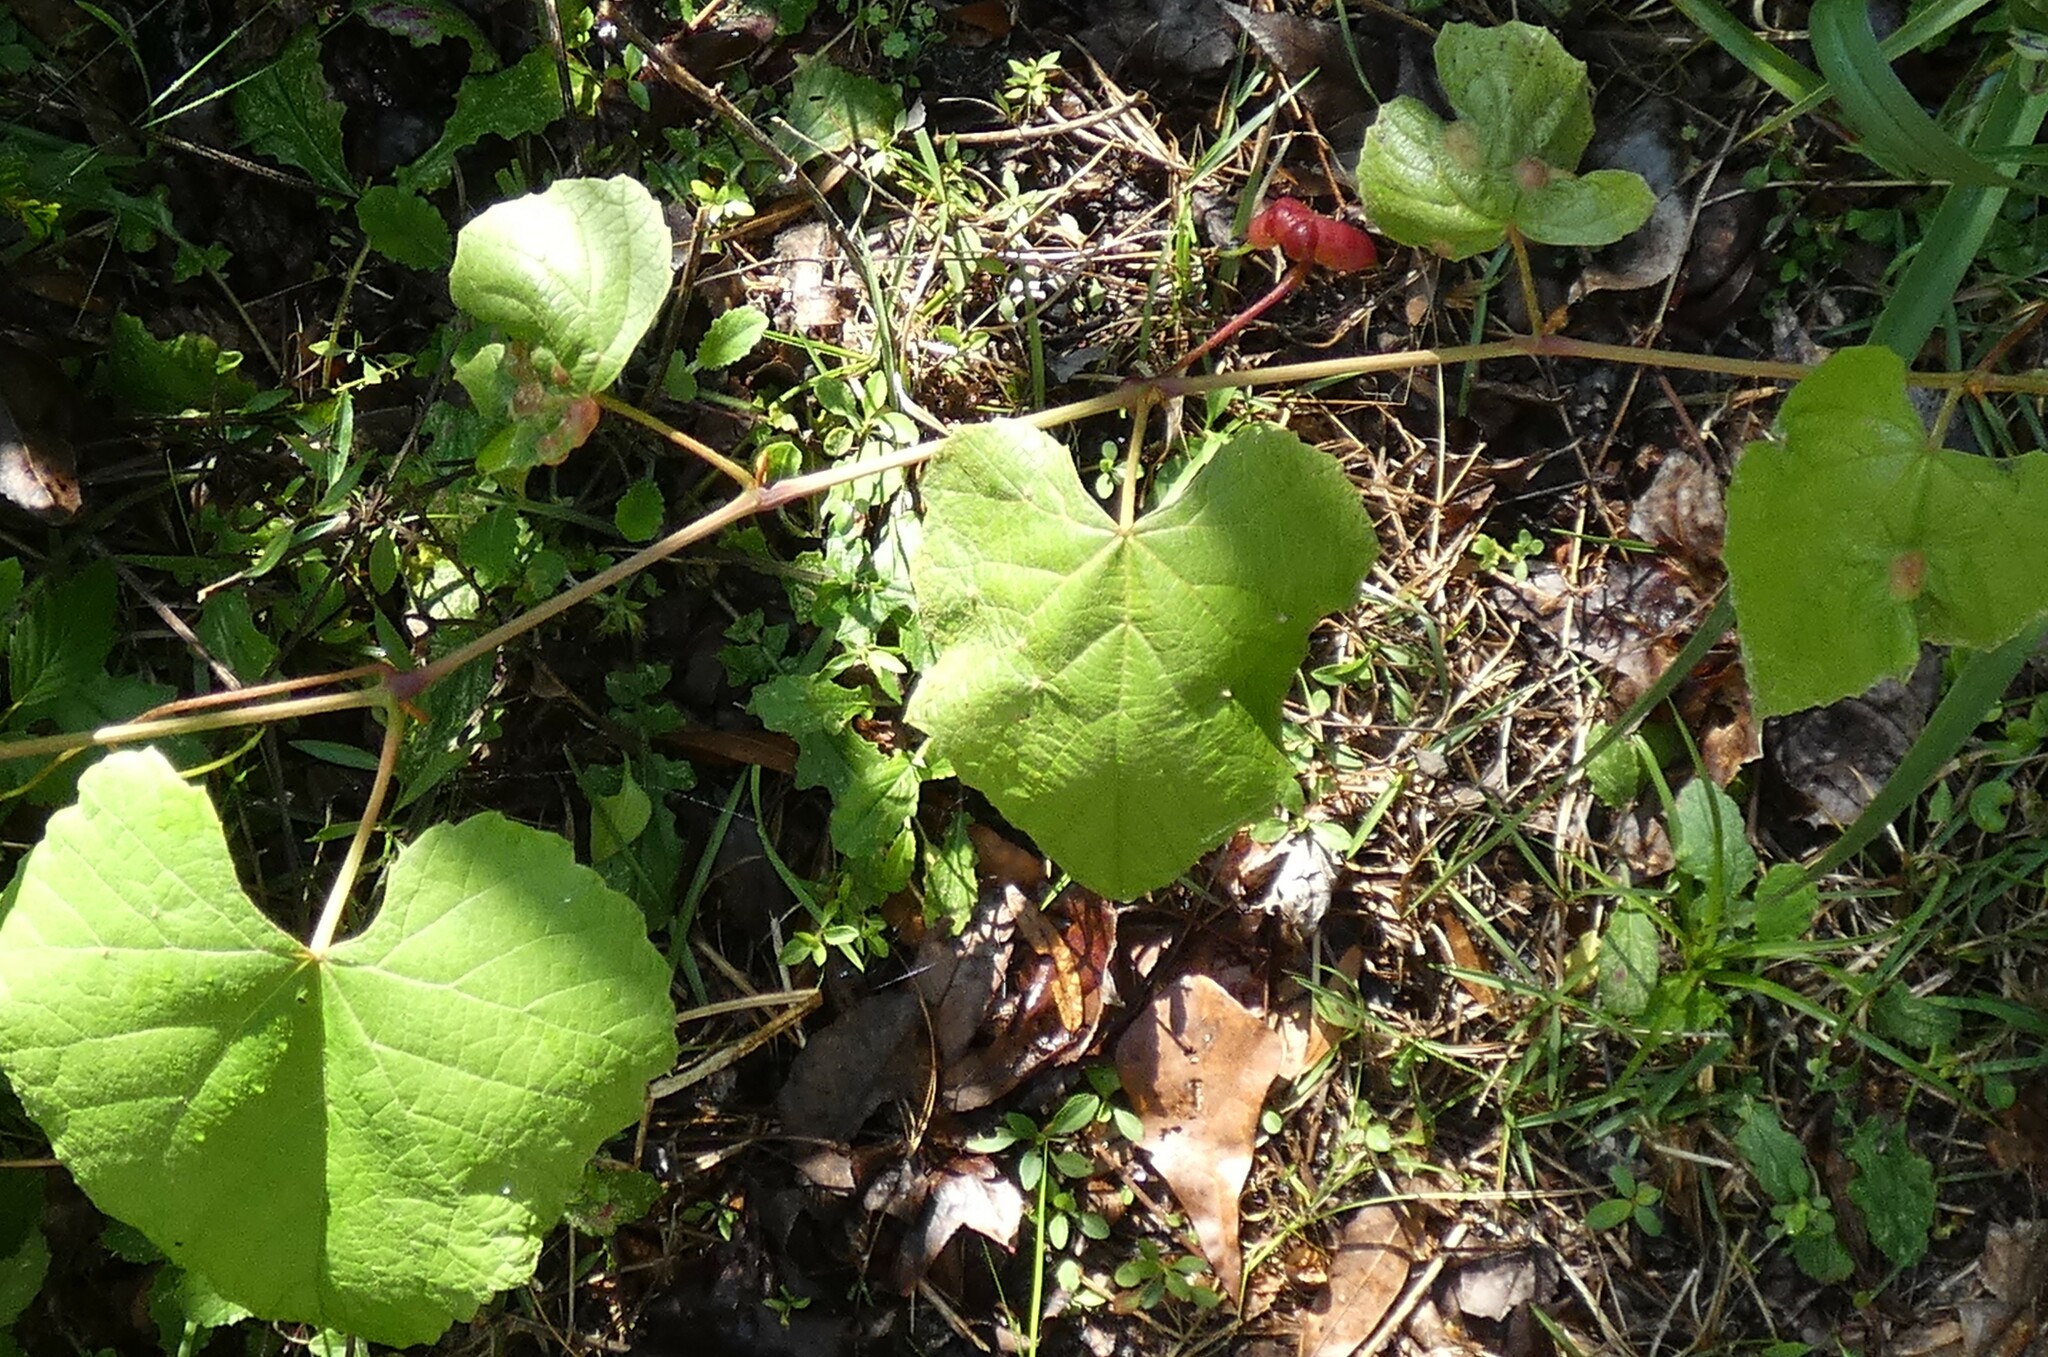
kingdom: Animalia
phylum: Arthropoda
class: Insecta
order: Diptera
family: Cecidomyiidae
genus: Vitisiella
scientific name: Vitisiella brevicauda
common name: Grape tumid gallmaker midge
